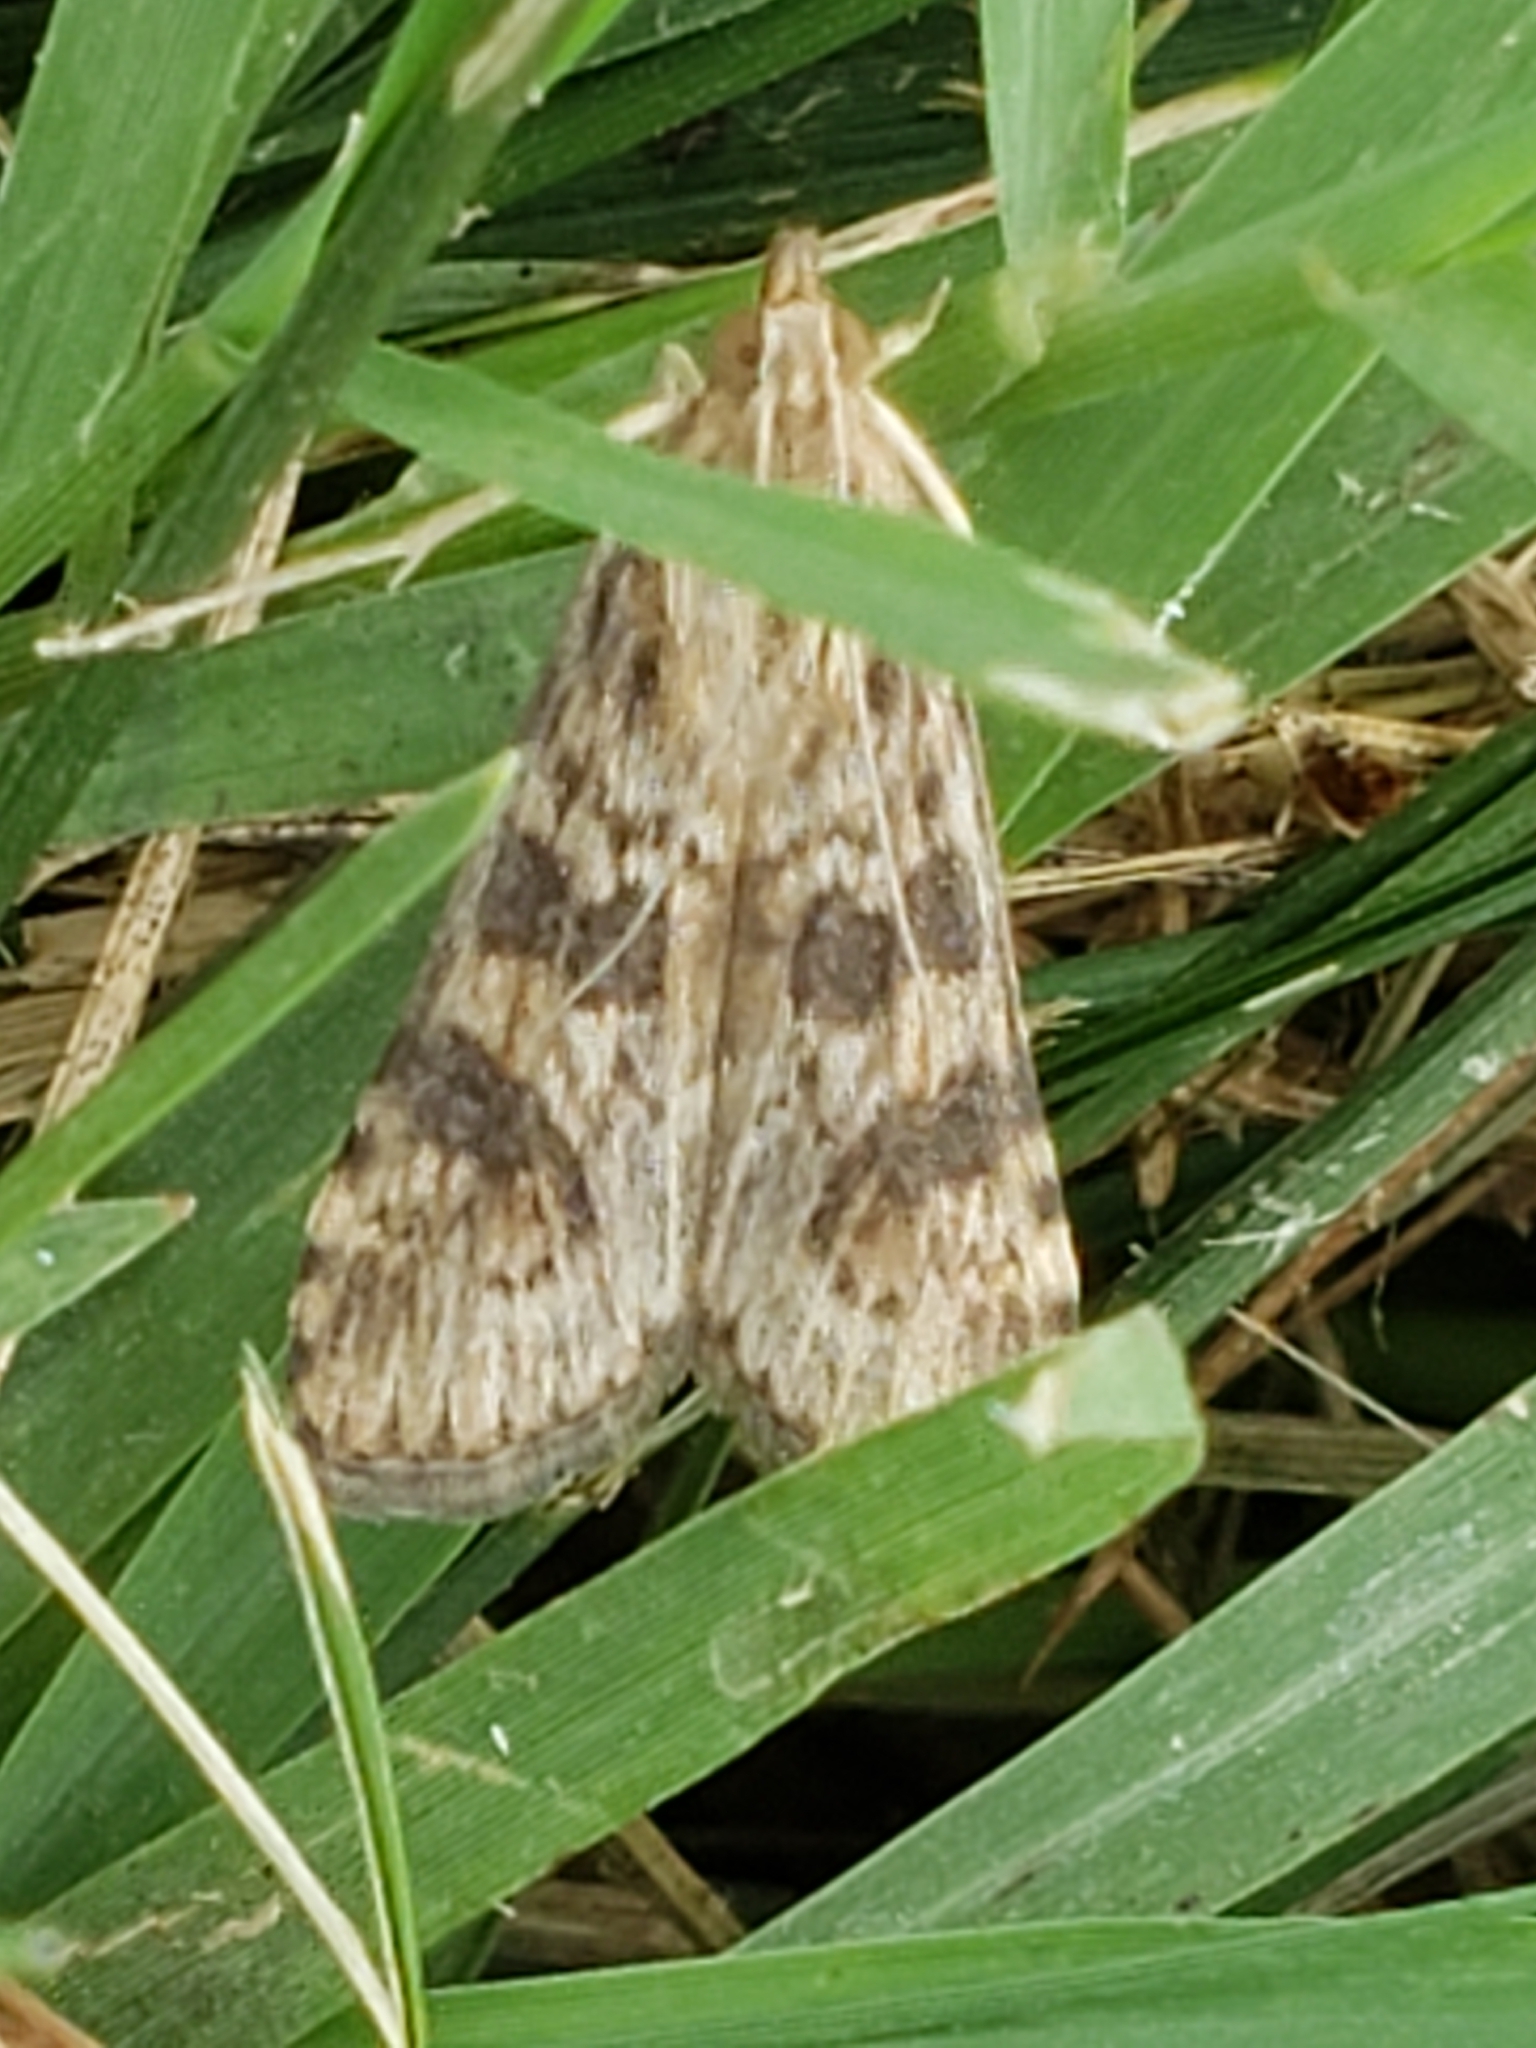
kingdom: Animalia
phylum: Arthropoda
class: Insecta
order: Lepidoptera
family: Crambidae
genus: Nomophila
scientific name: Nomophila nearctica
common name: American rush veneer
